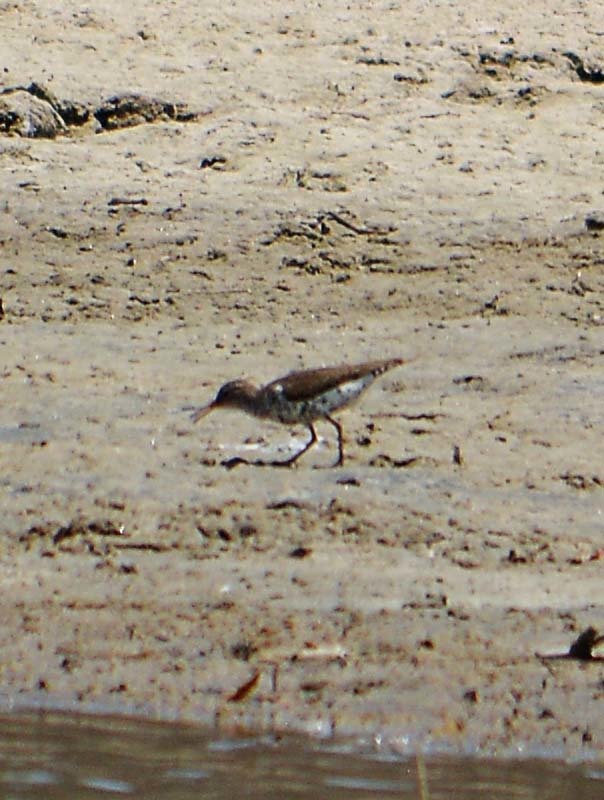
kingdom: Animalia
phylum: Chordata
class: Aves
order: Charadriiformes
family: Scolopacidae
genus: Actitis
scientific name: Actitis macularius
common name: Spotted sandpiper
